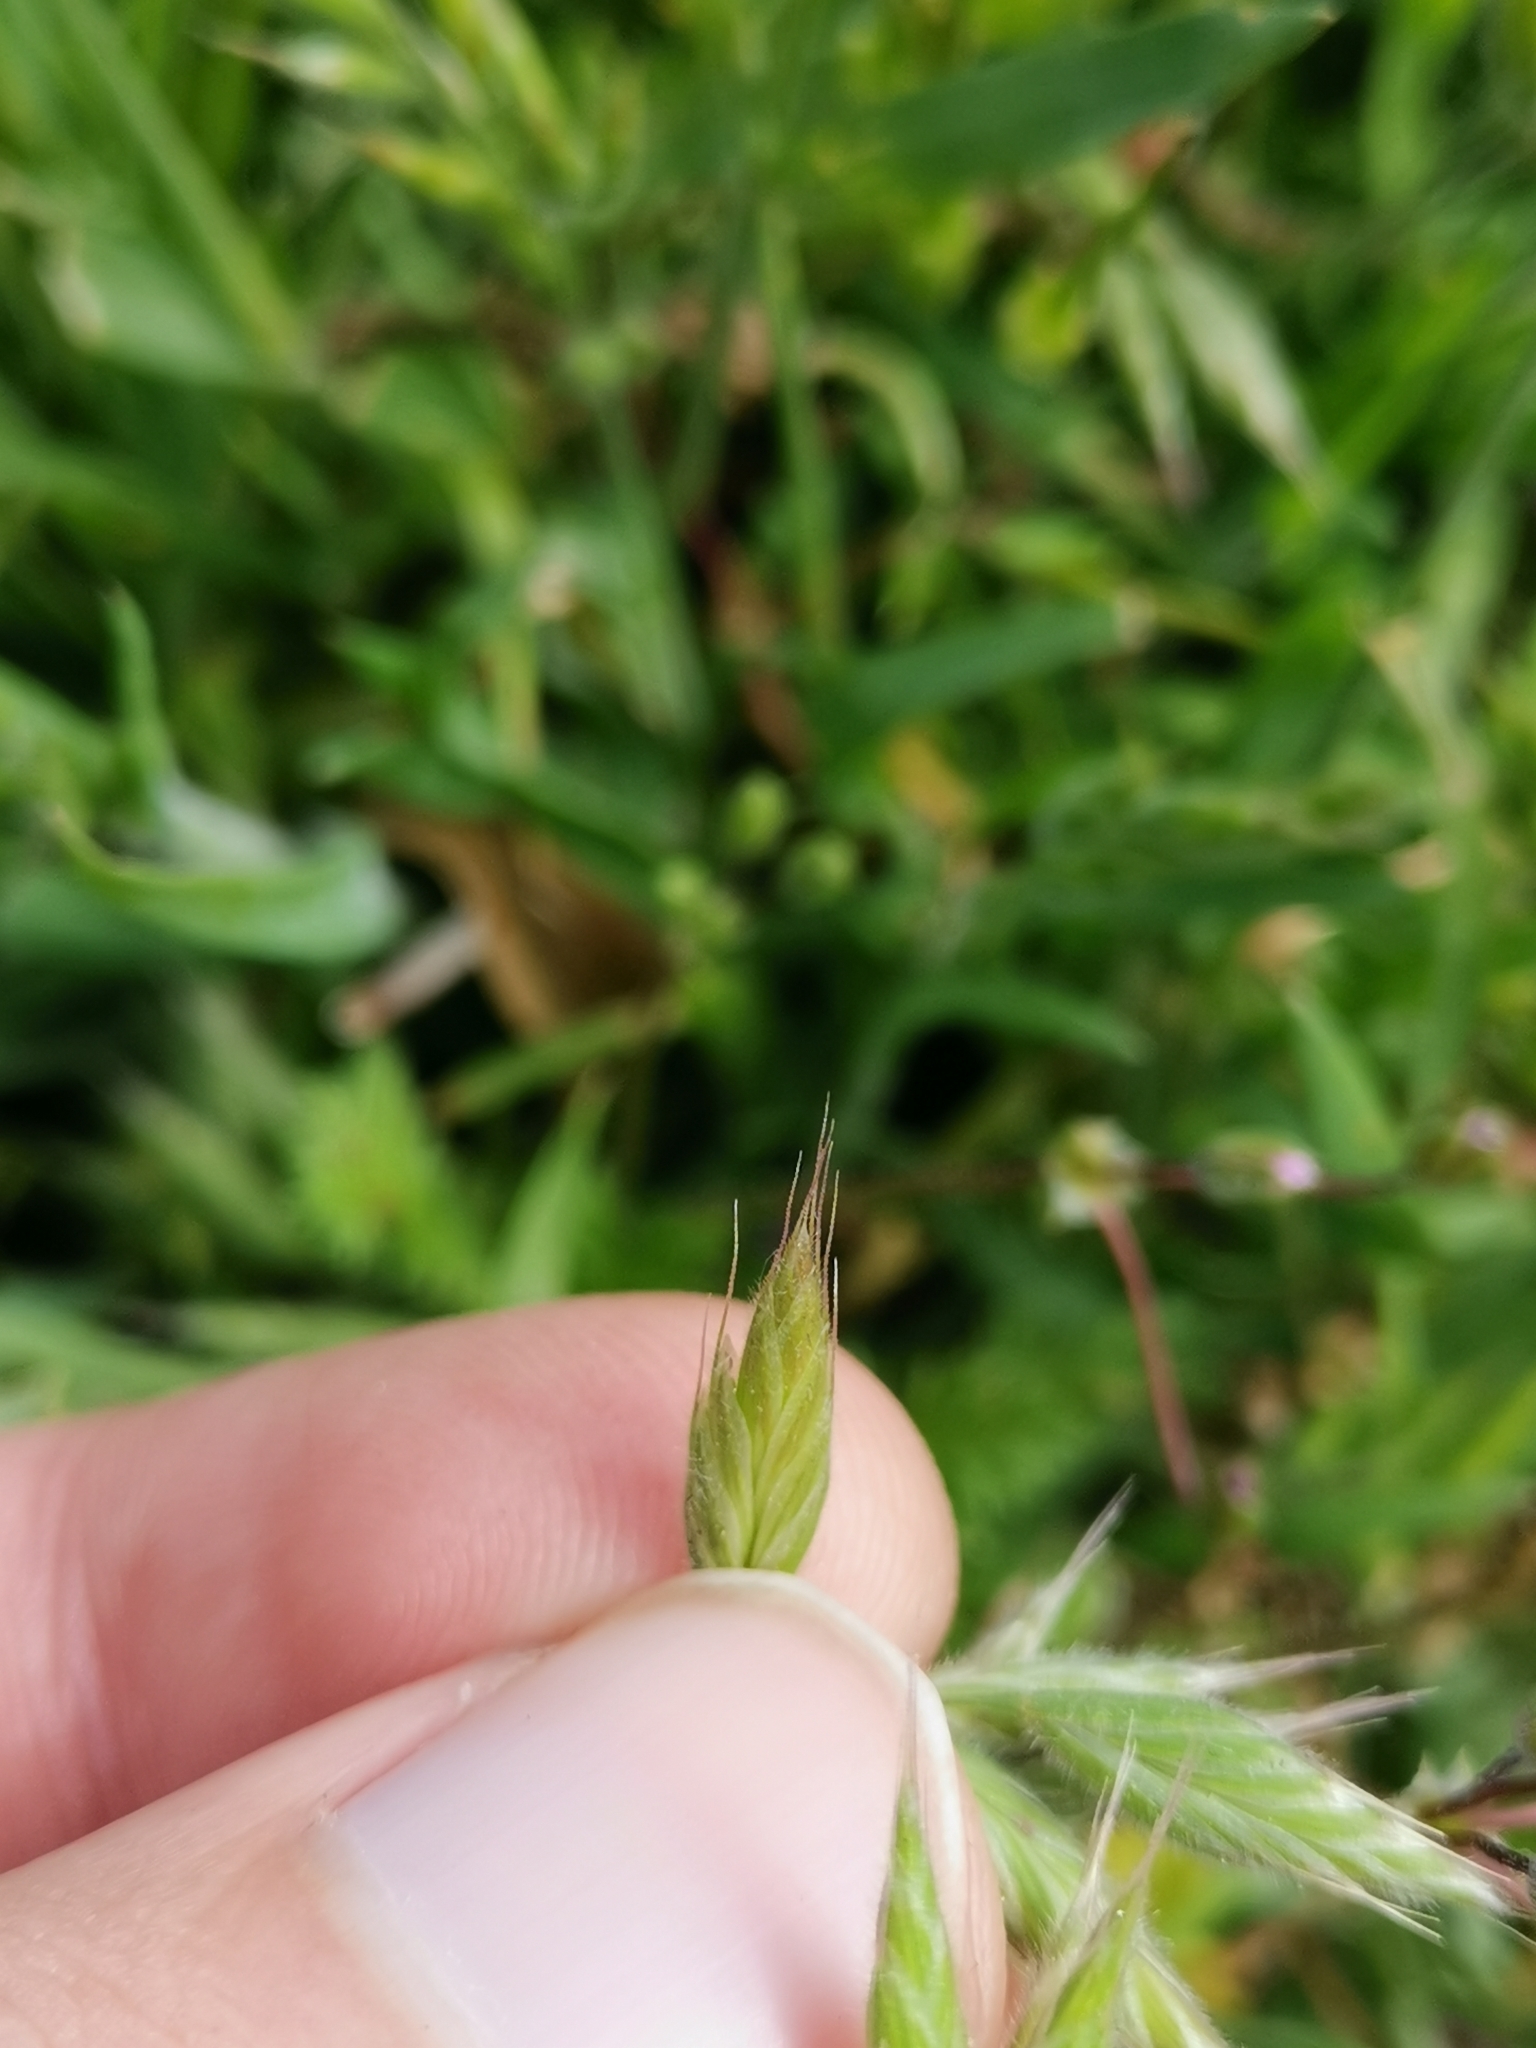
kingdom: Plantae
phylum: Tracheophyta
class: Liliopsida
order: Poales
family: Poaceae
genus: Bromus
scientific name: Bromus hordeaceus
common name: Soft brome
